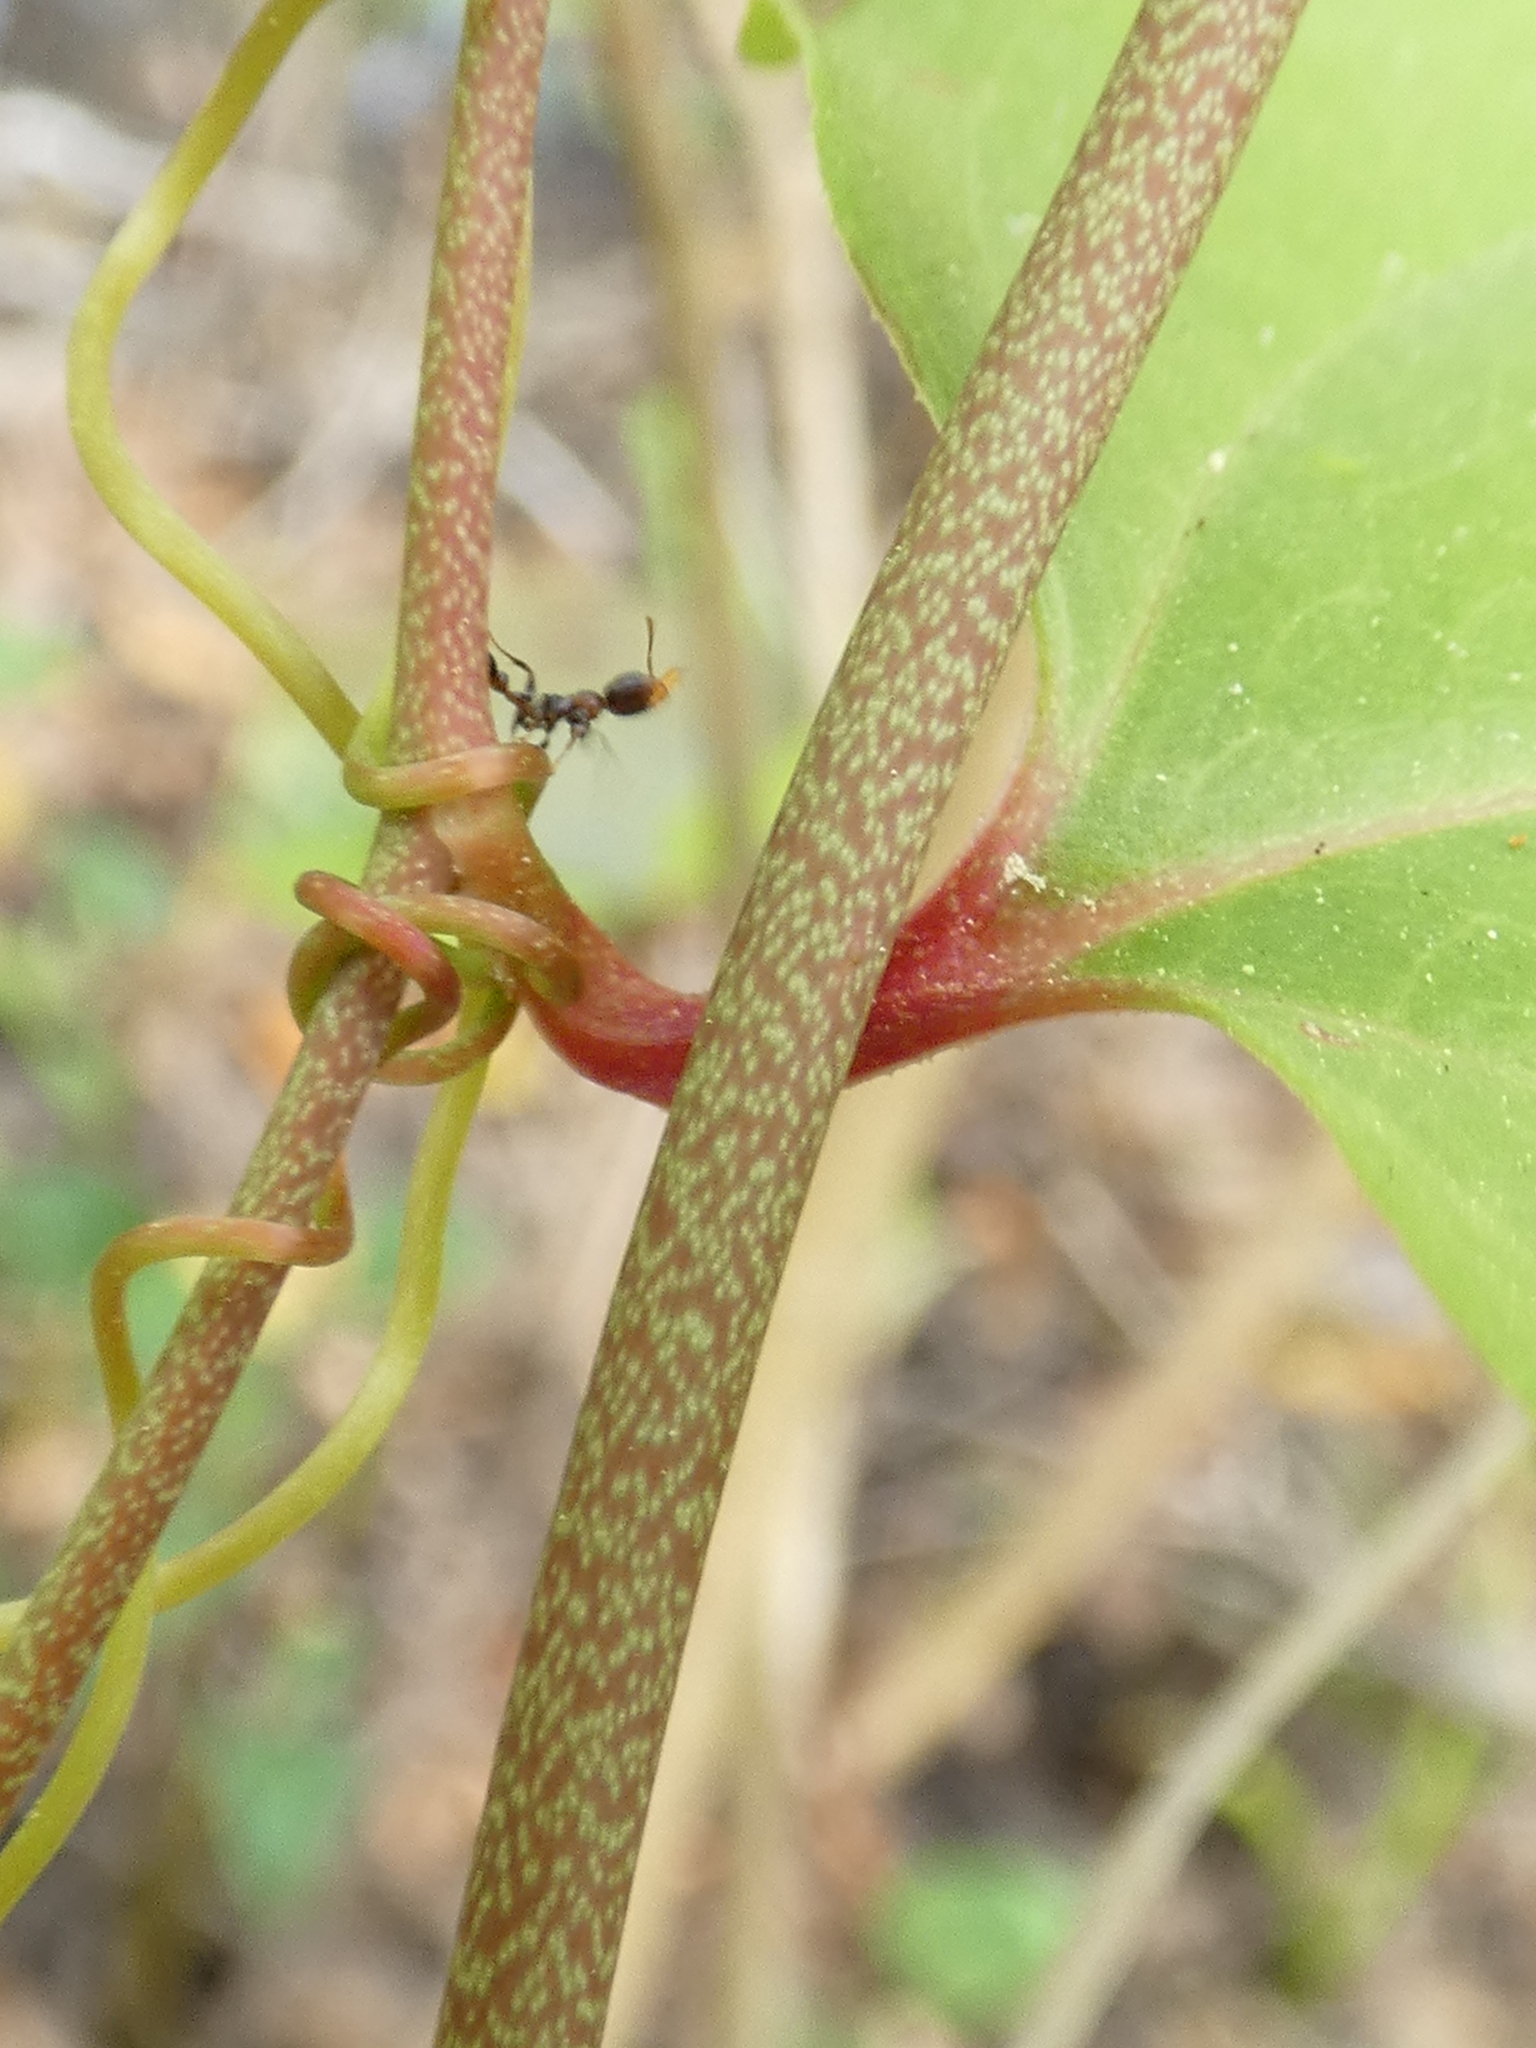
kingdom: Plantae
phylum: Tracheophyta
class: Liliopsida
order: Liliales
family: Smilacaceae
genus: Smilax
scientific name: Smilax walteri
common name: Coral greenbrier
